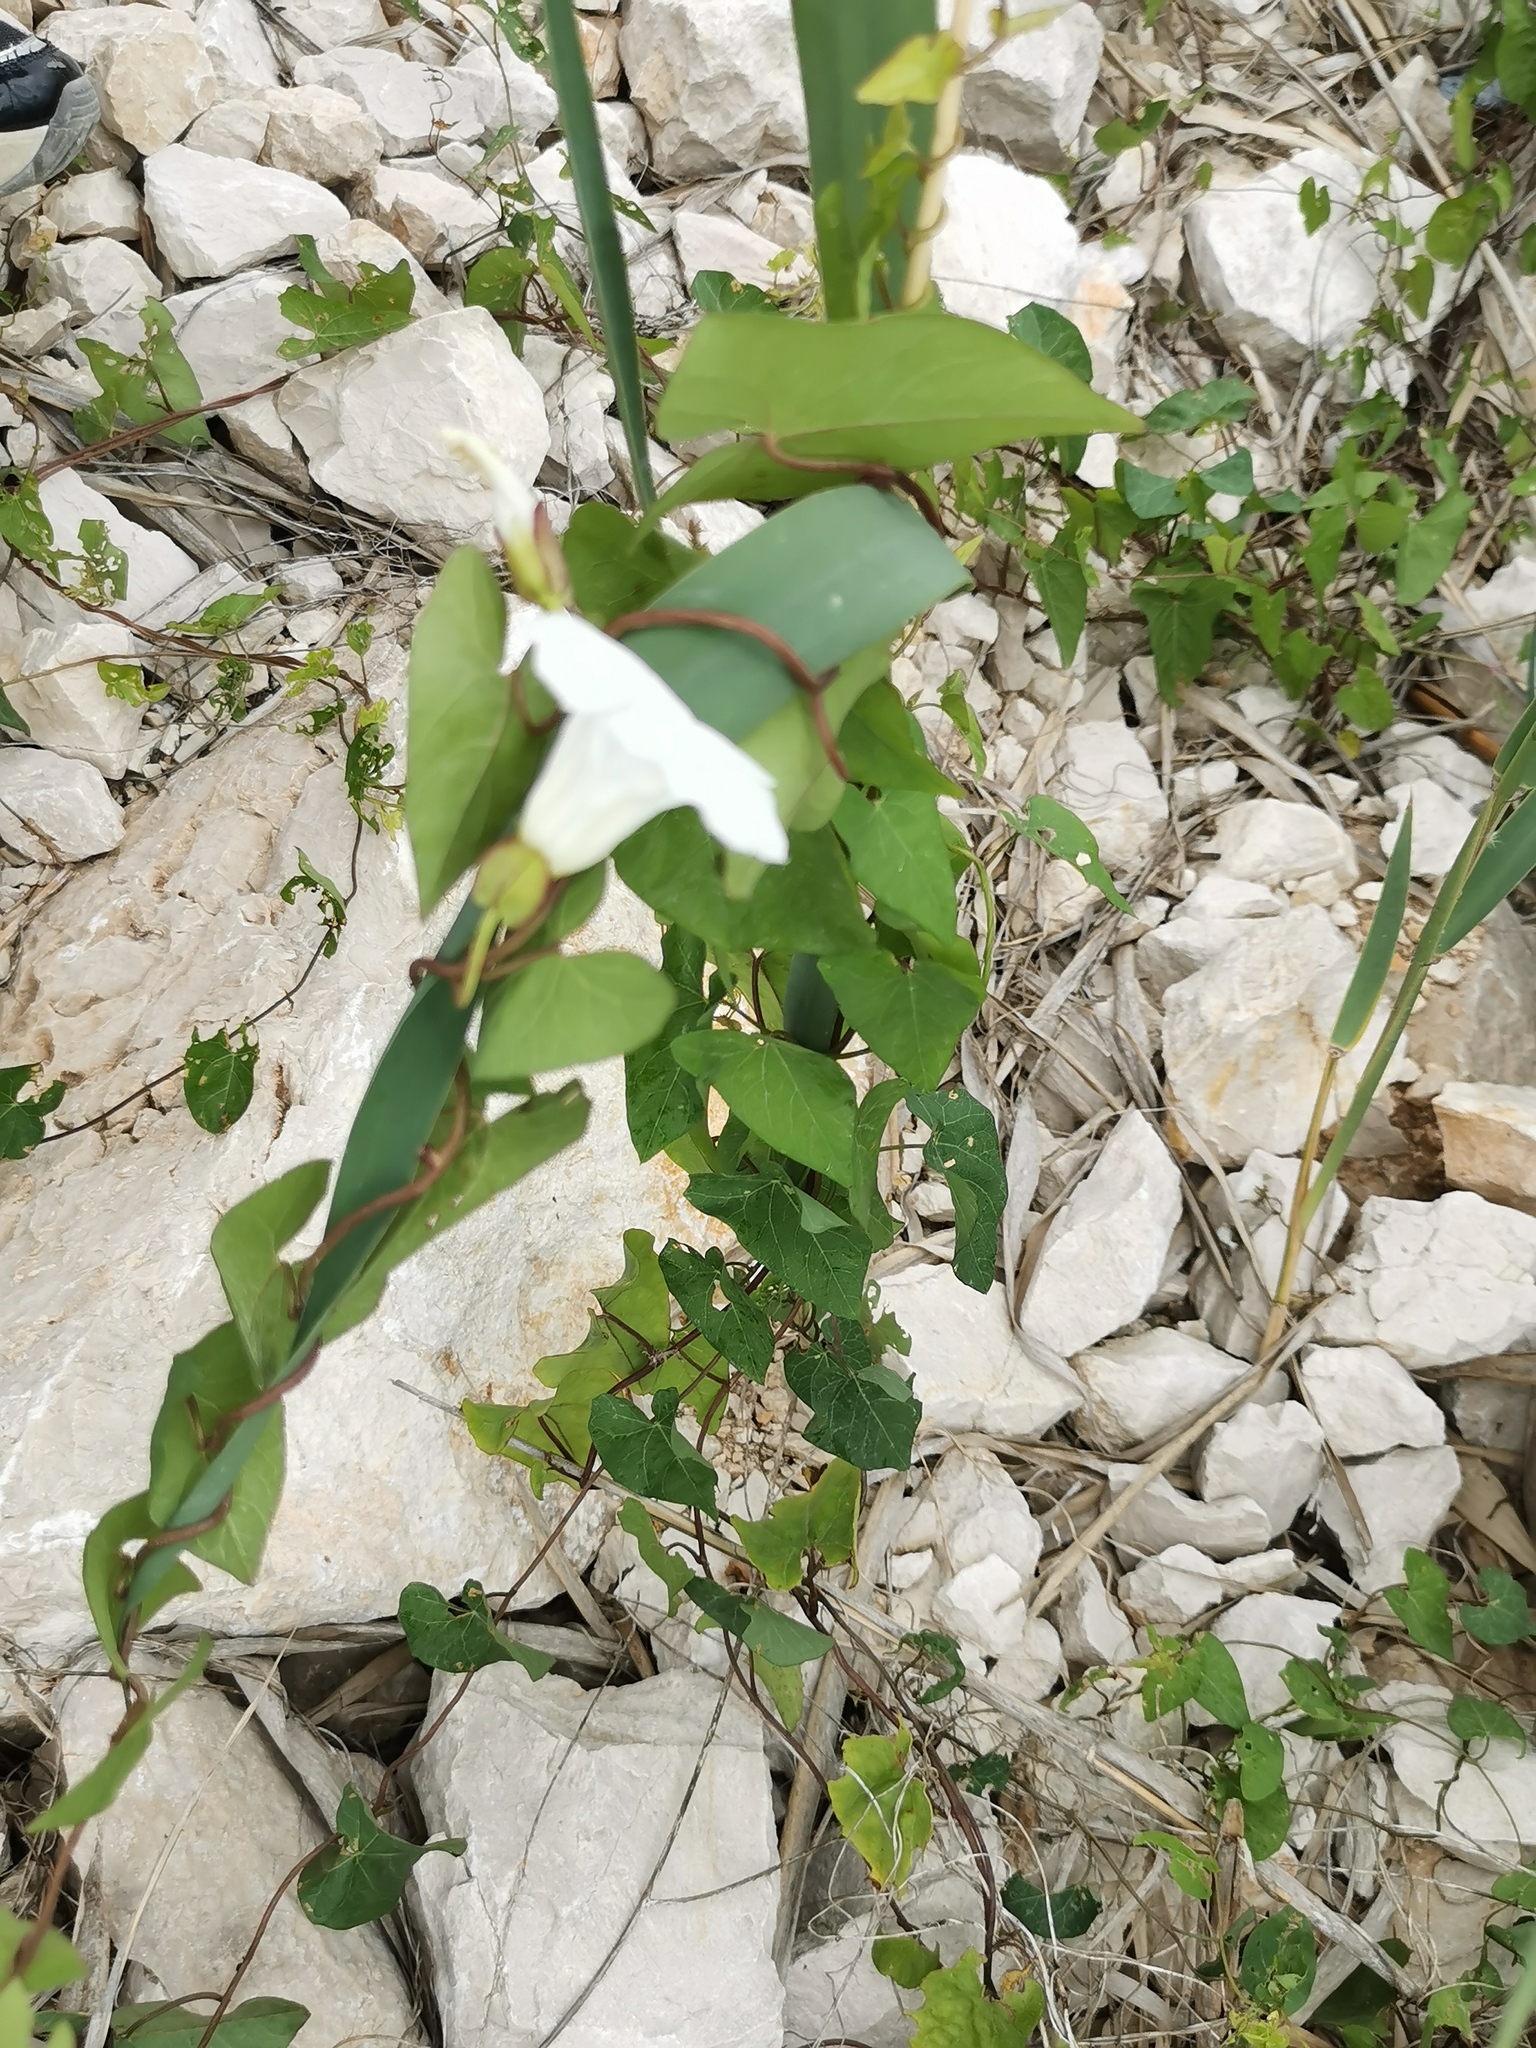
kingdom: Plantae
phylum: Tracheophyta
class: Magnoliopsida
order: Solanales
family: Convolvulaceae
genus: Calystegia
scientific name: Calystegia sepium
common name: Hedge bindweed
